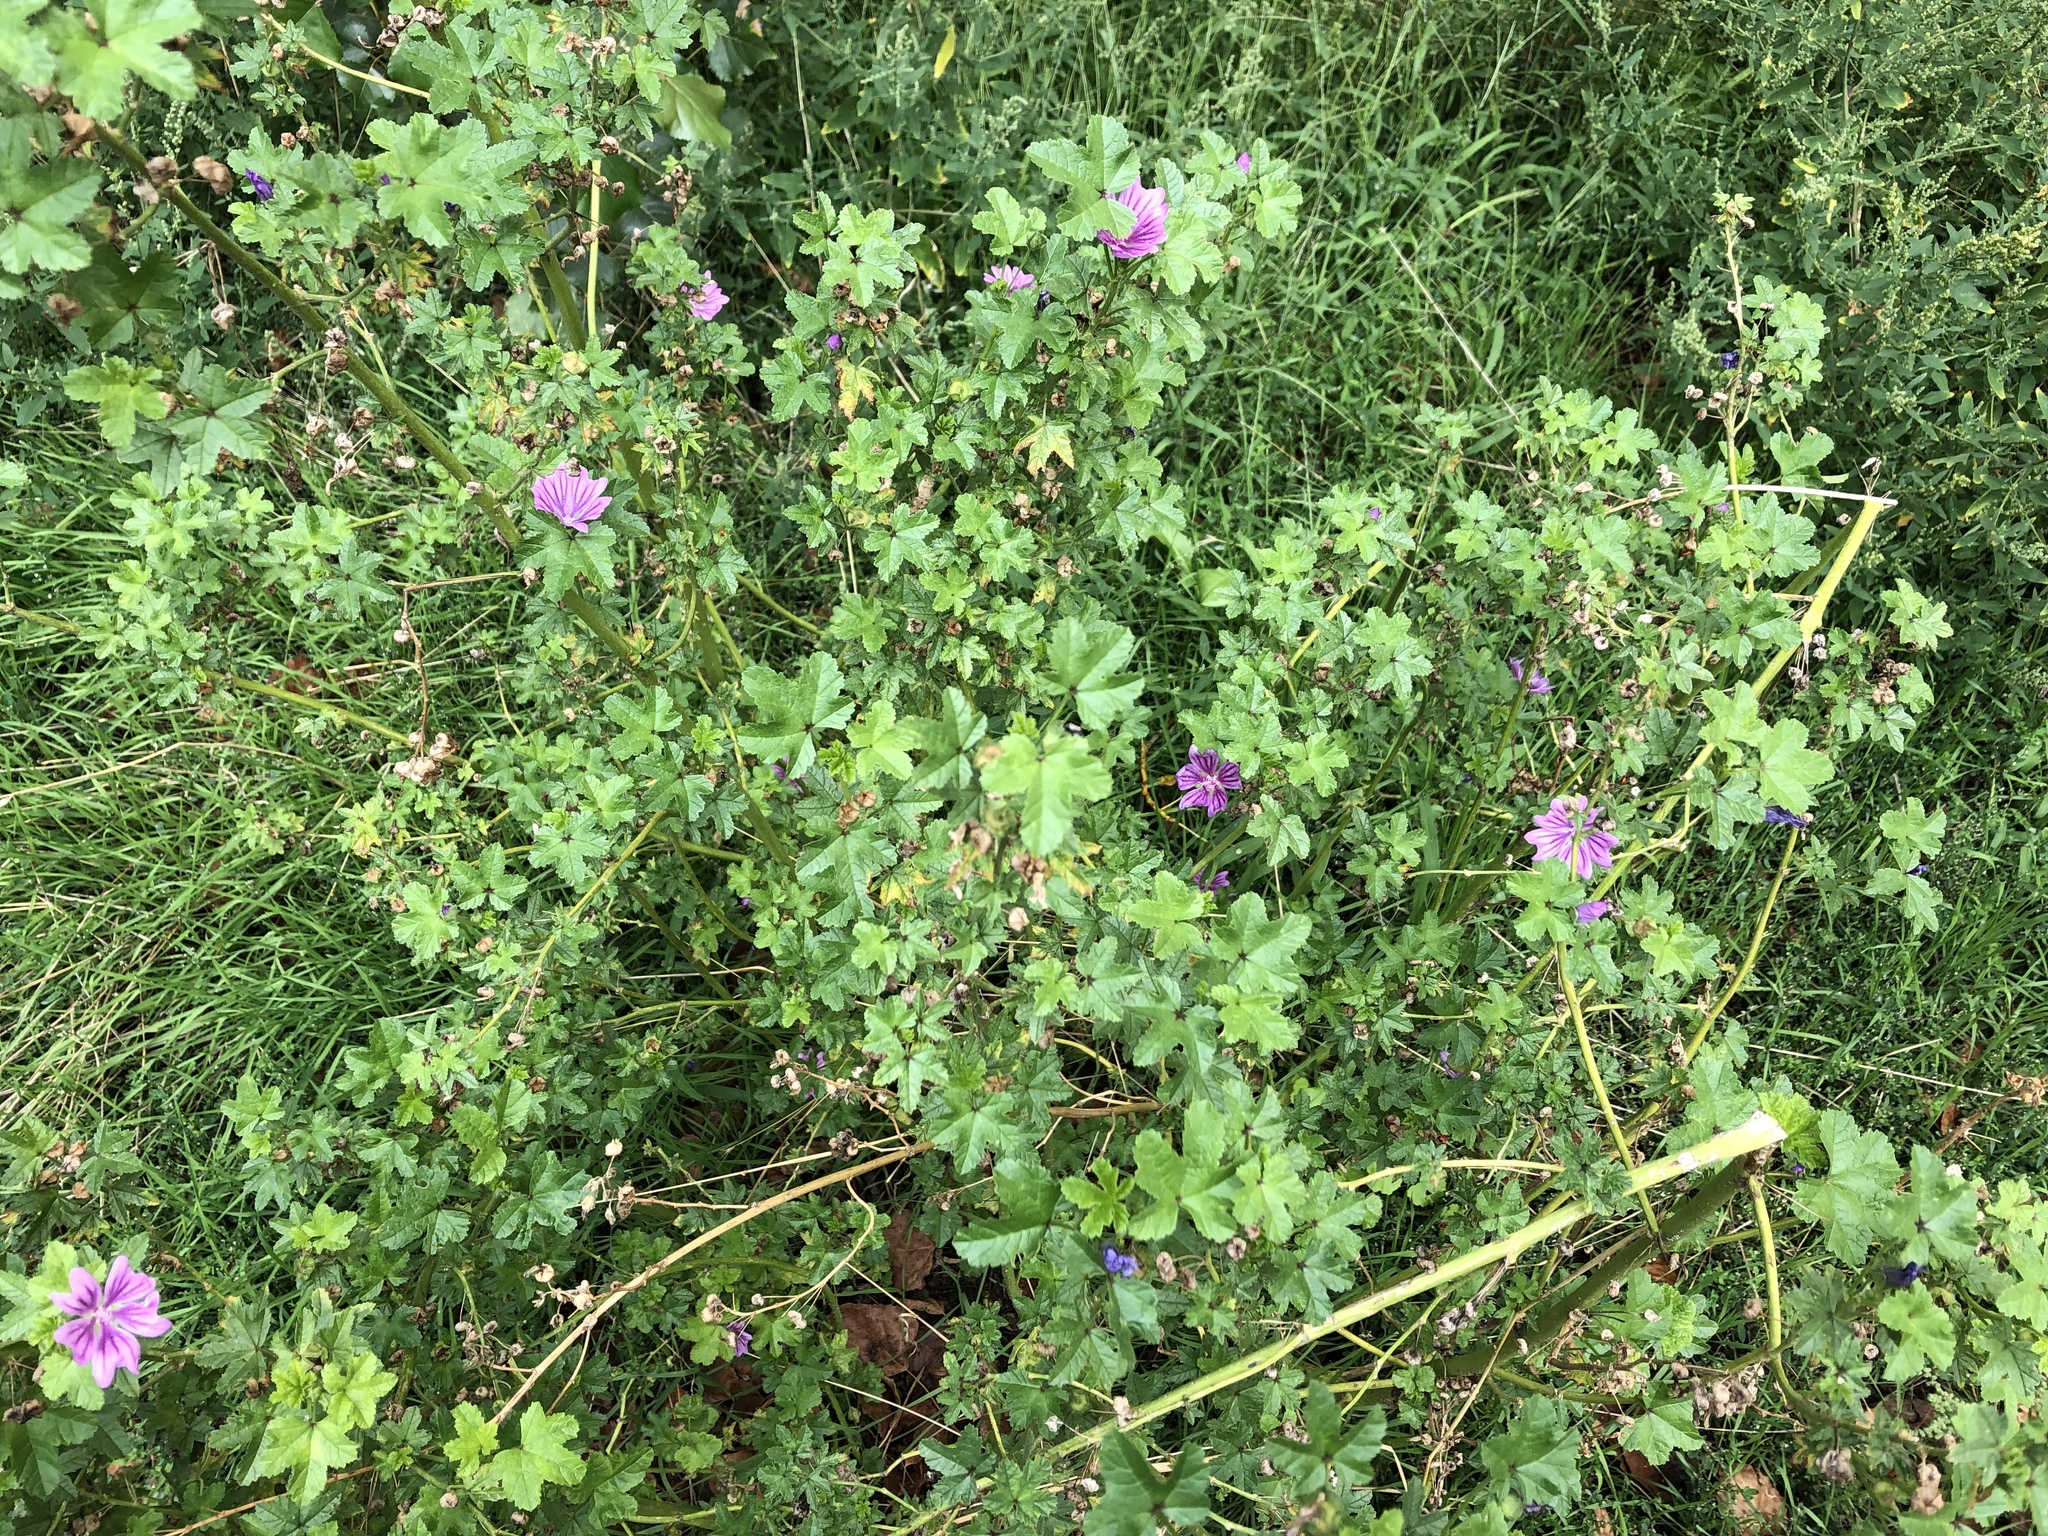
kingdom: Plantae
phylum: Tracheophyta
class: Magnoliopsida
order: Malvales
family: Malvaceae
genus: Malva
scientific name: Malva sylvestris
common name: Common mallow
